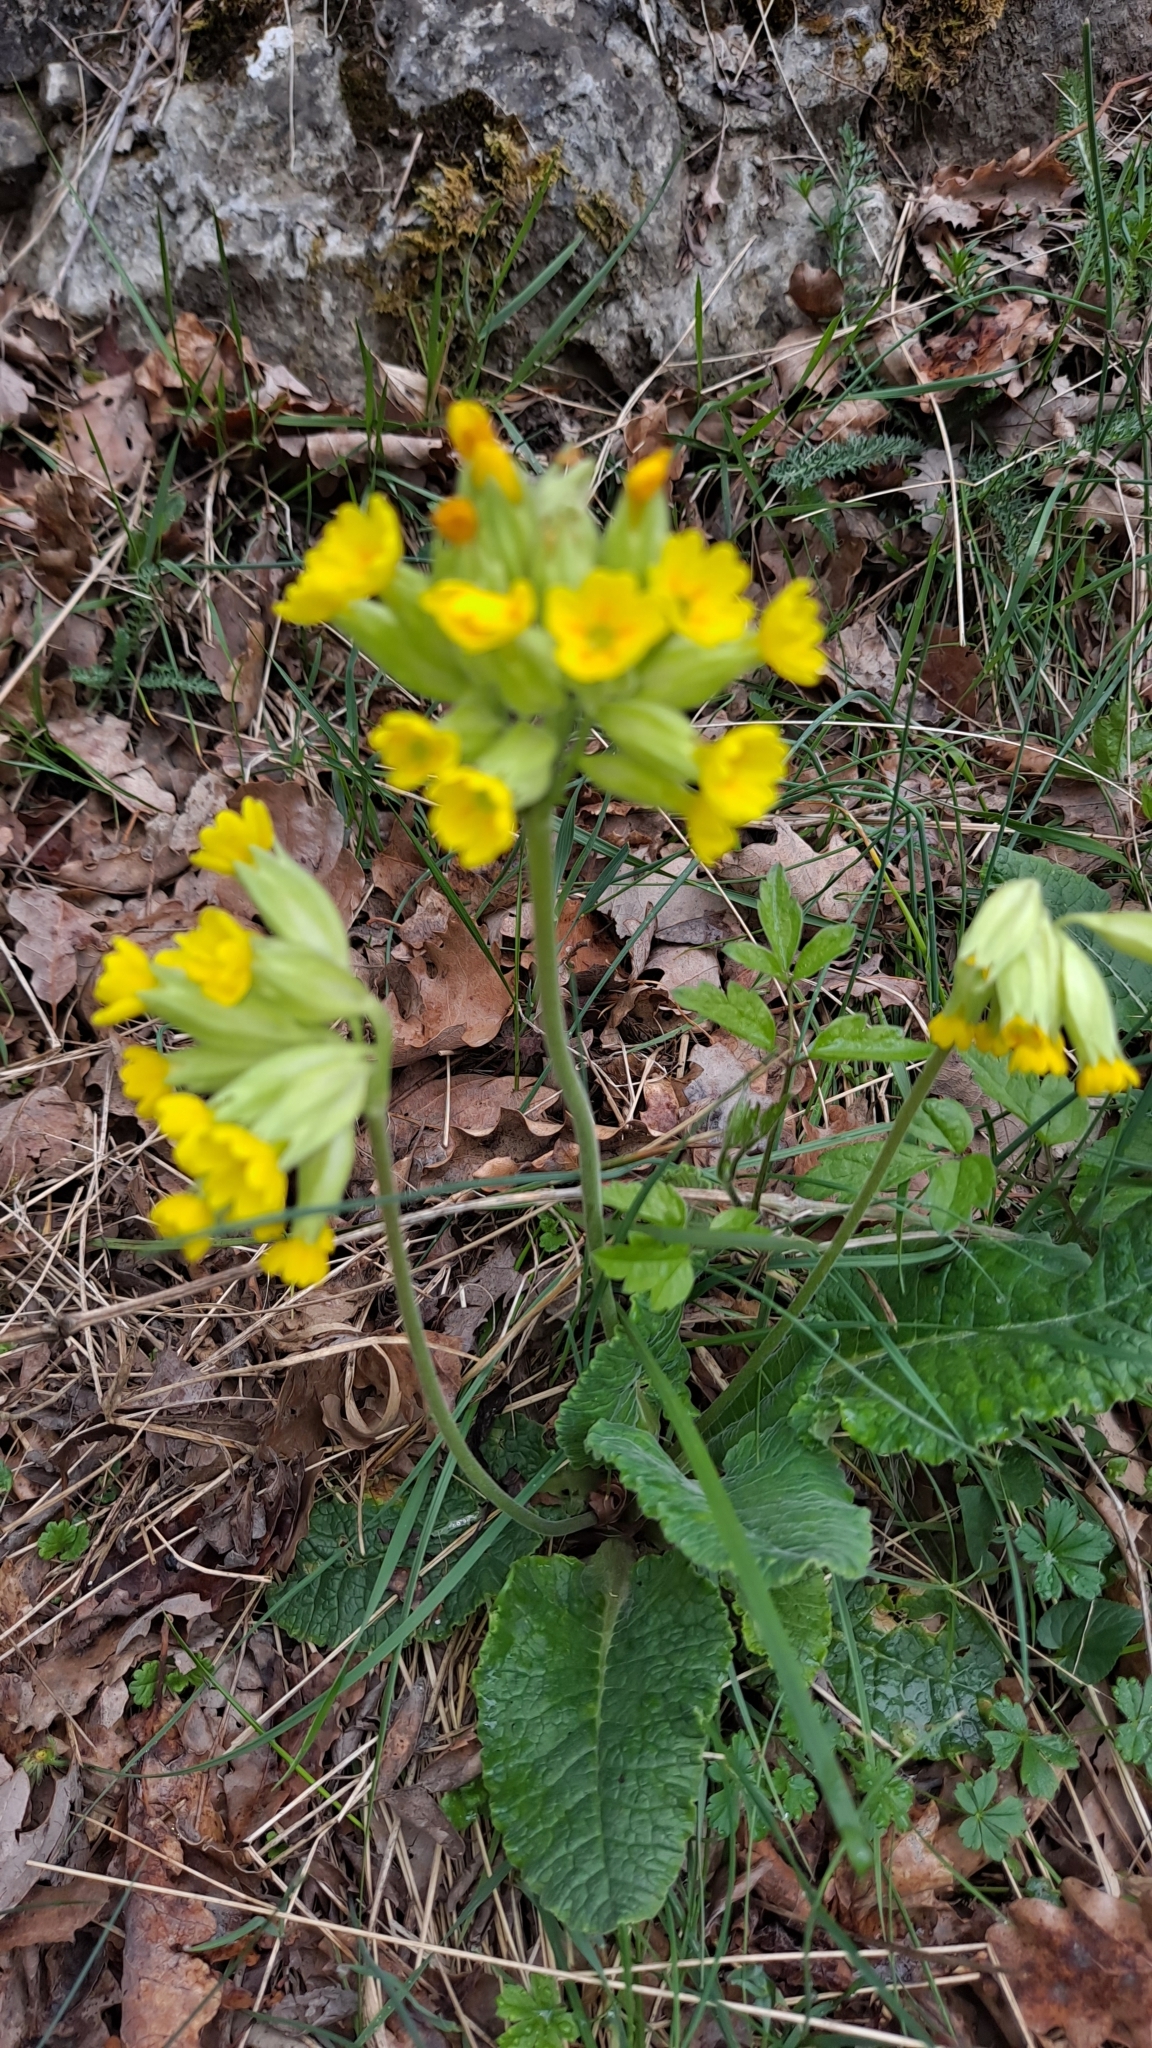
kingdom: Plantae
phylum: Tracheophyta
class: Magnoliopsida
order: Ericales
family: Primulaceae
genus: Primula
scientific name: Primula veris
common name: Cowslip
